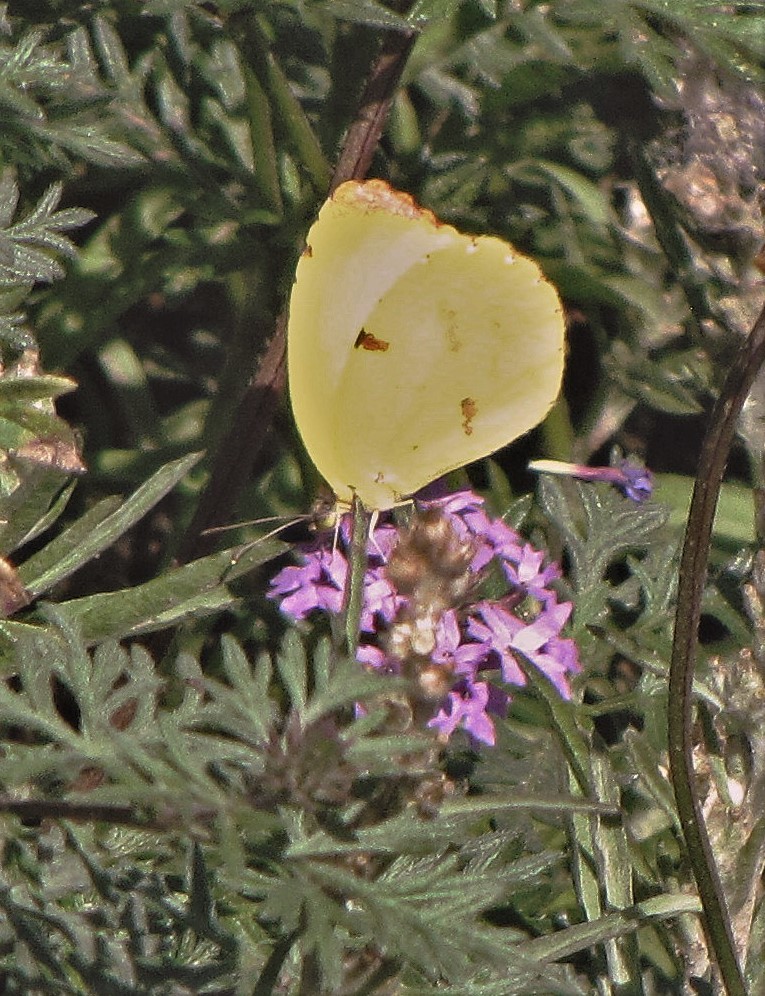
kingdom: Animalia
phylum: Arthropoda
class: Insecta
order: Lepidoptera
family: Pieridae
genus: Teriocolias
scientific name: Teriocolias
